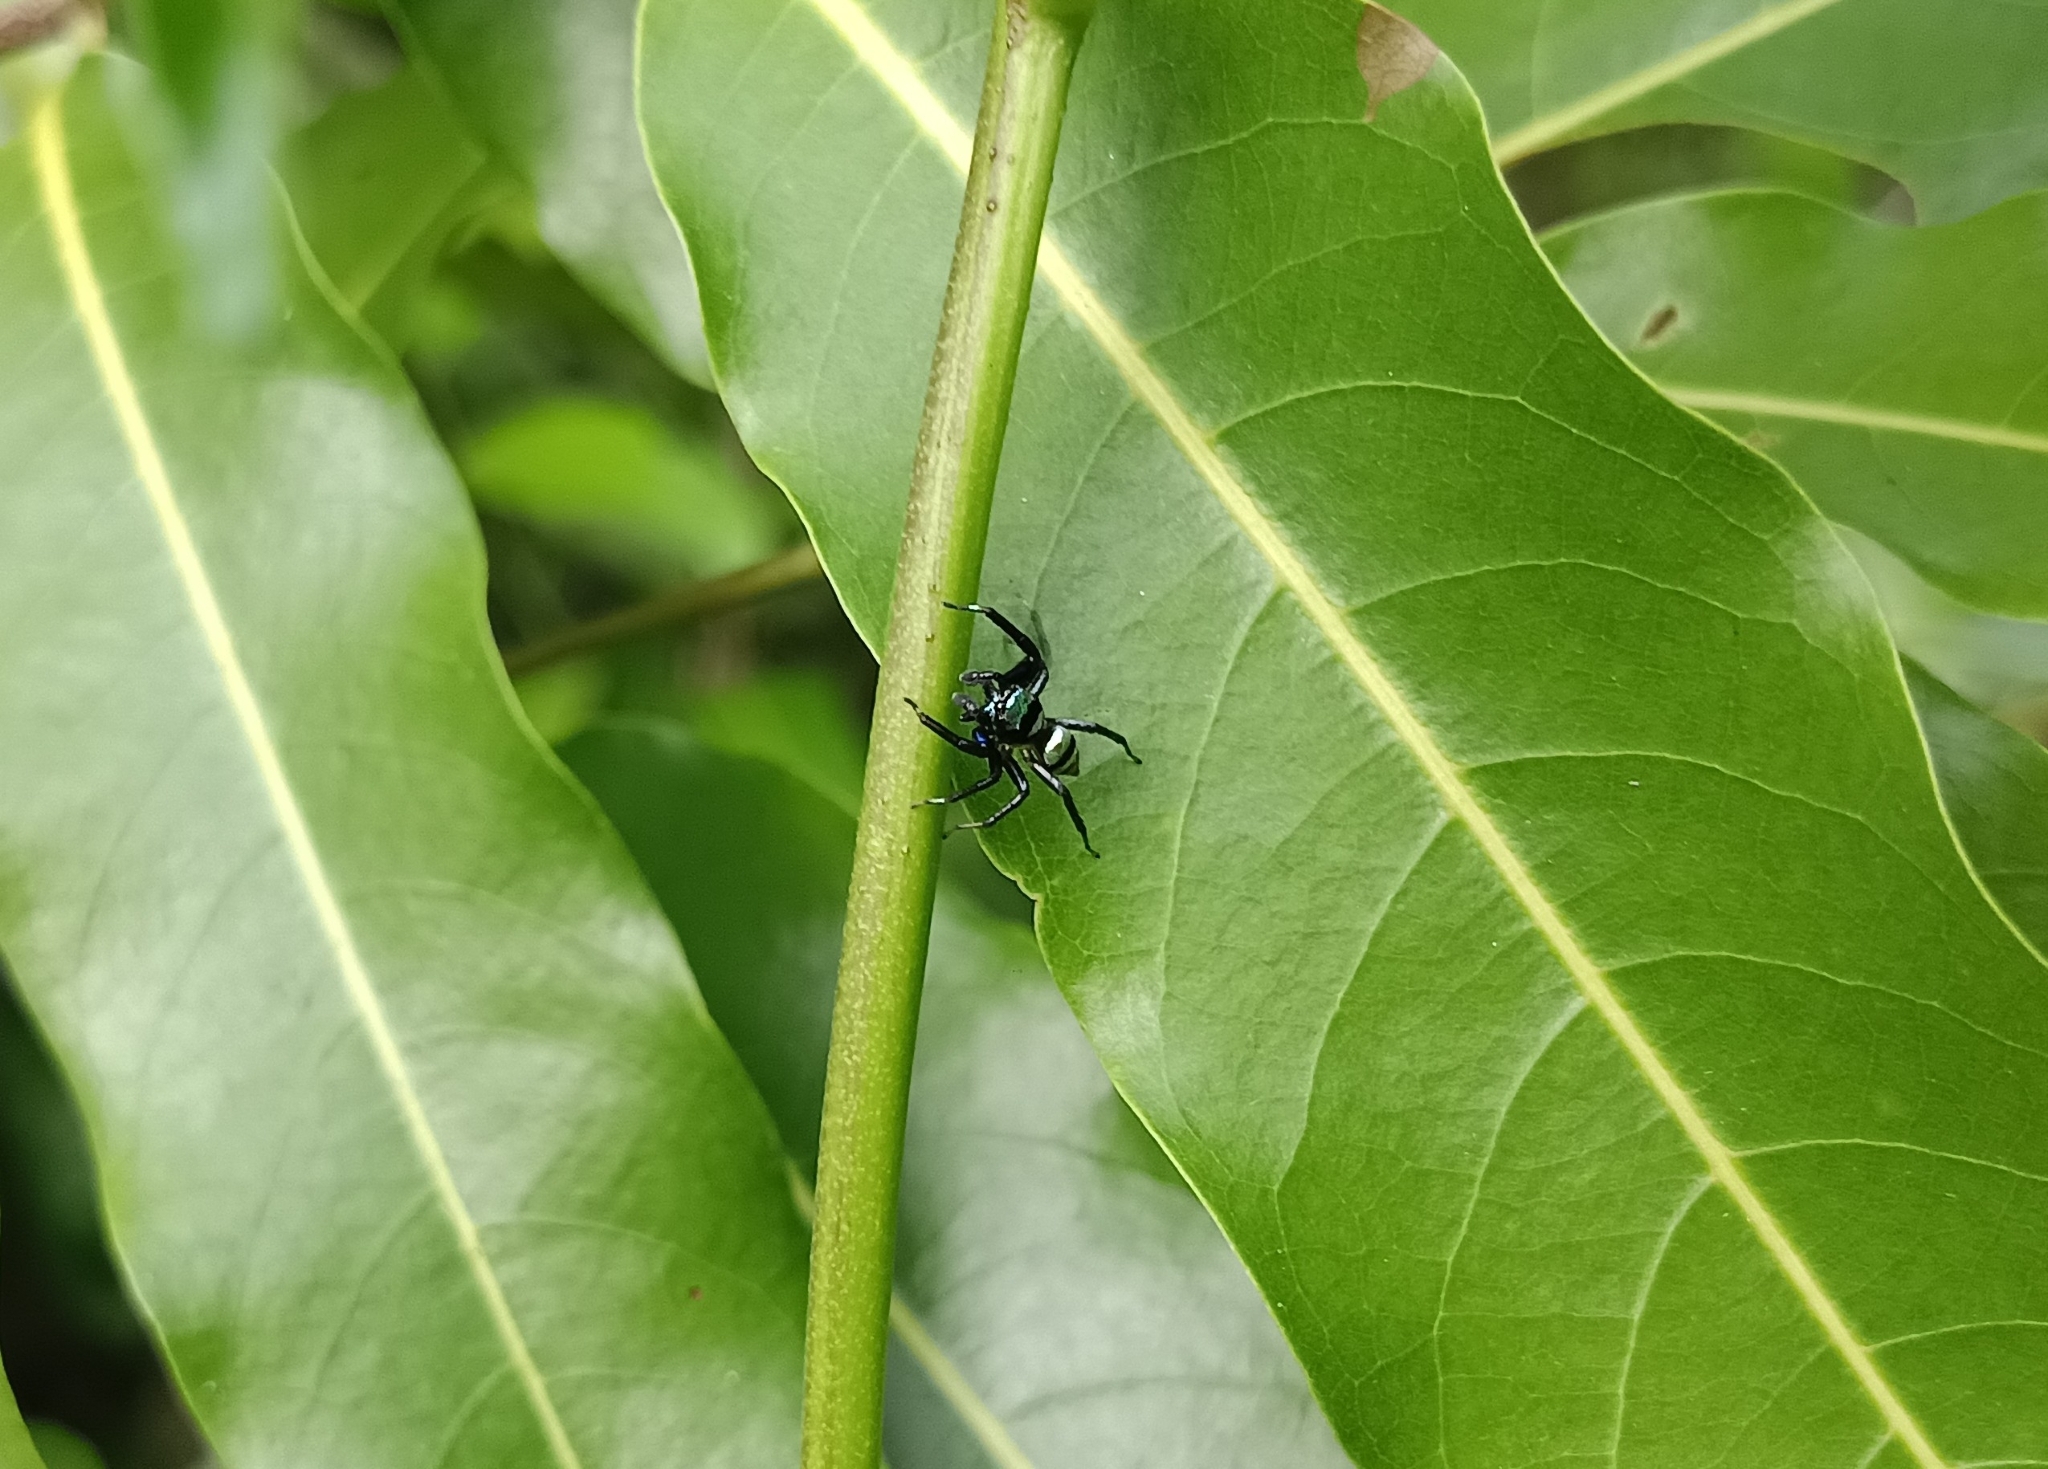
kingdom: Animalia
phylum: Arthropoda
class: Arachnida
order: Araneae
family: Salticidae
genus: Phintella
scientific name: Phintella vittata
